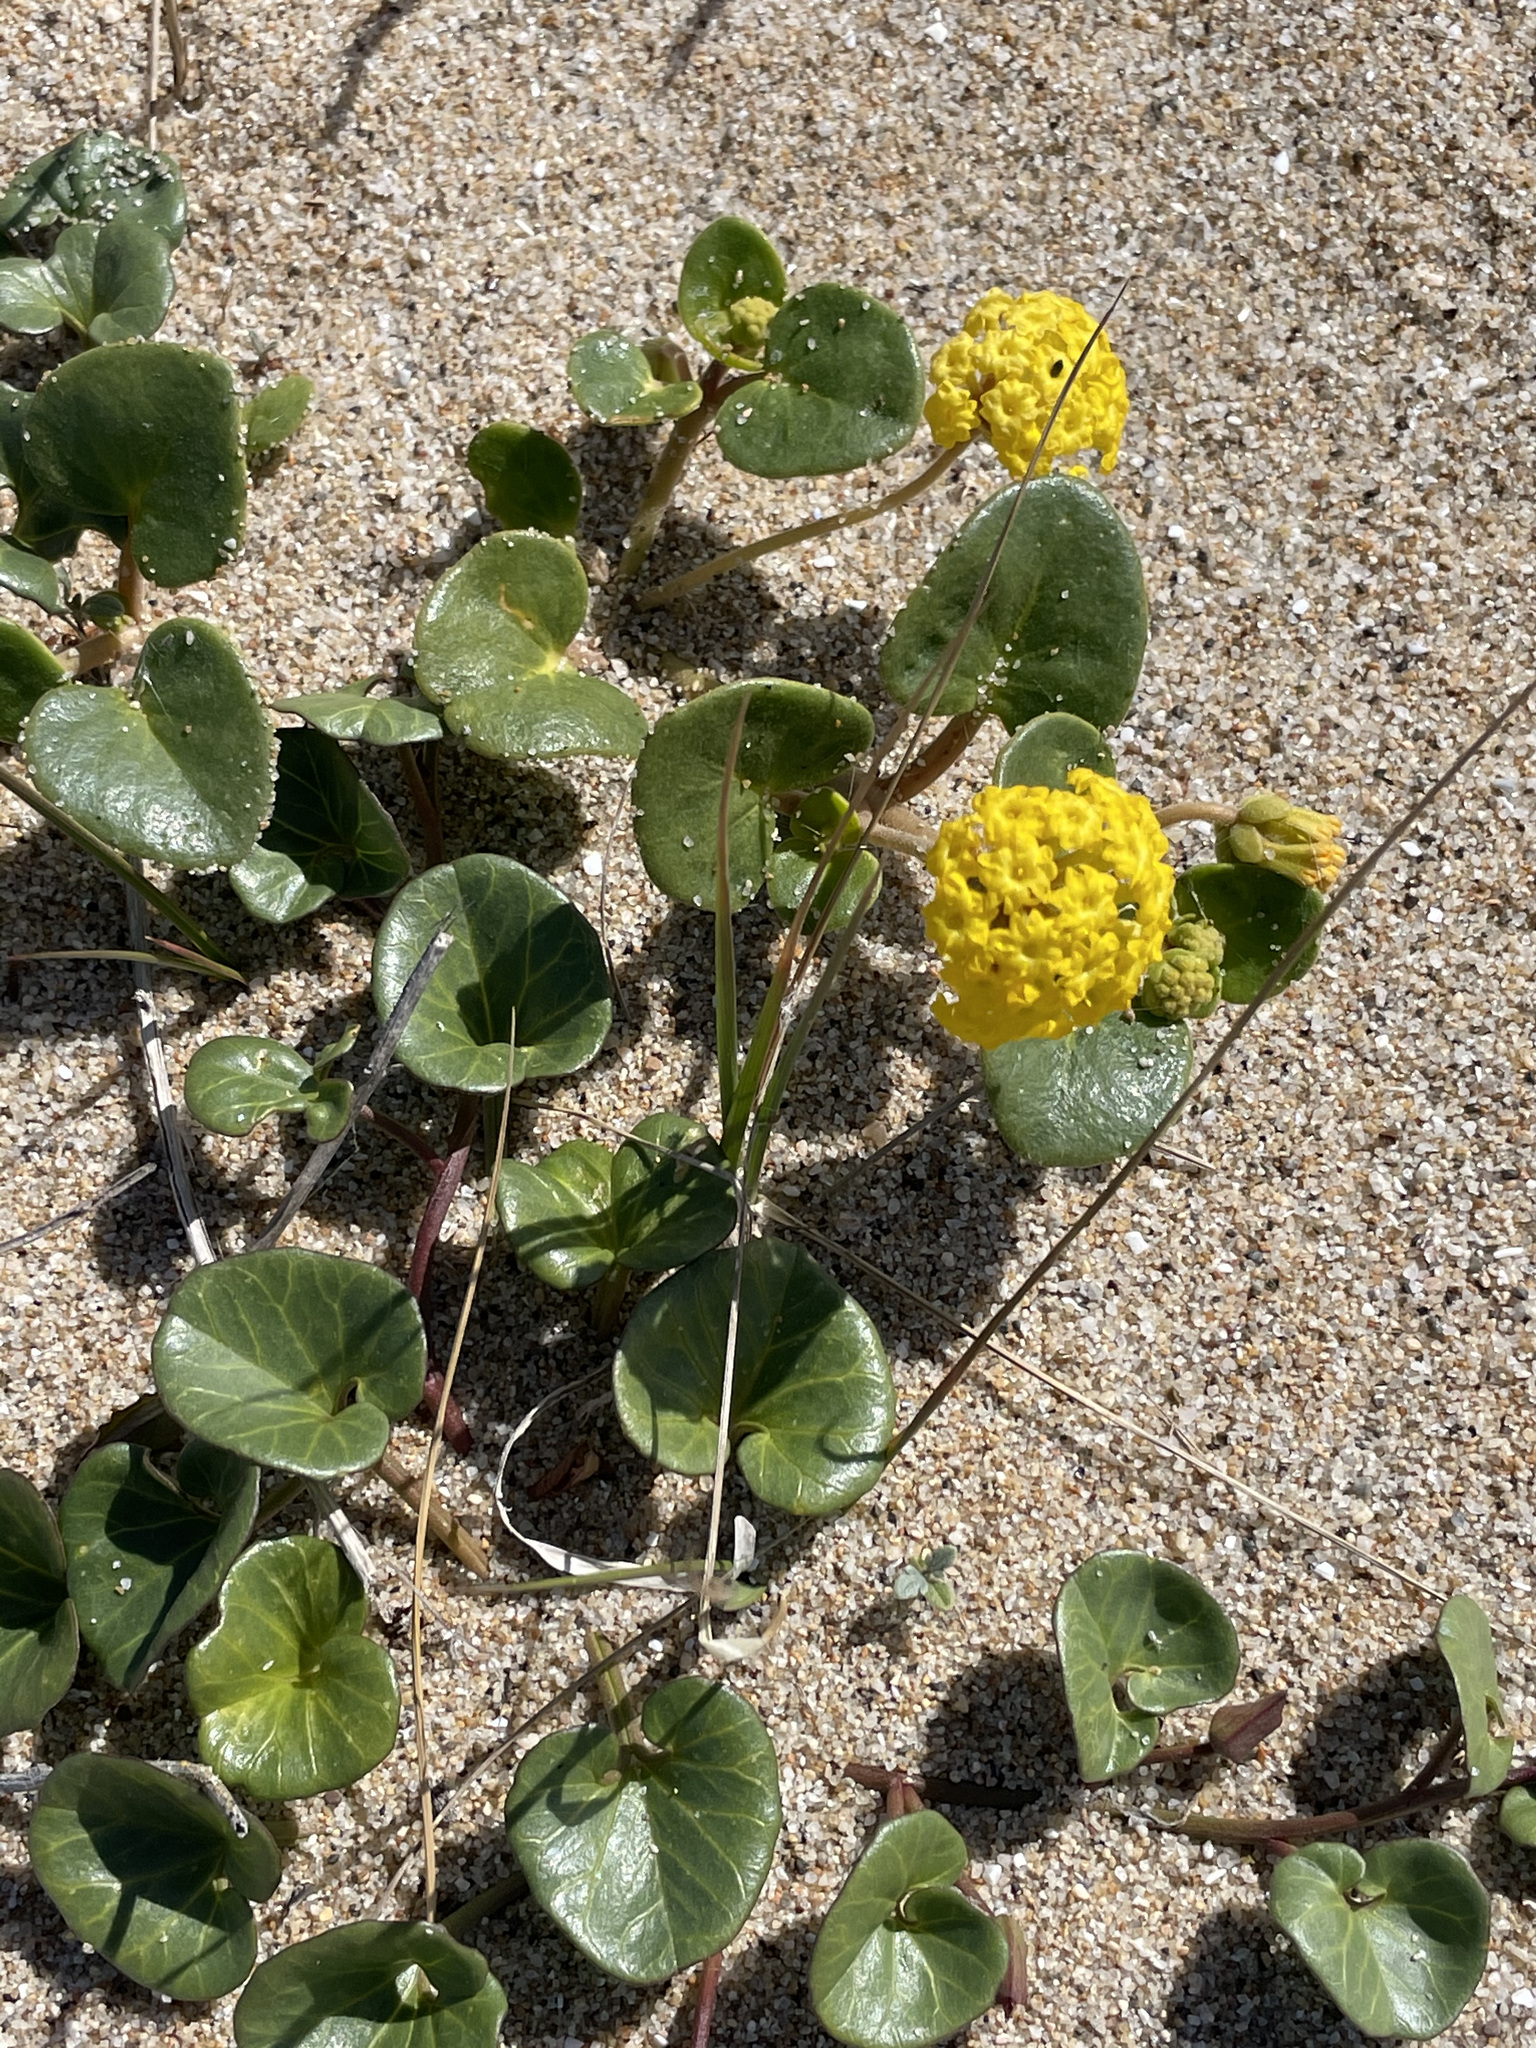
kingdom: Plantae
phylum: Tracheophyta
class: Magnoliopsida
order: Caryophyllales
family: Nyctaginaceae
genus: Abronia
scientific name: Abronia latifolia
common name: Yellow sand-verbena
